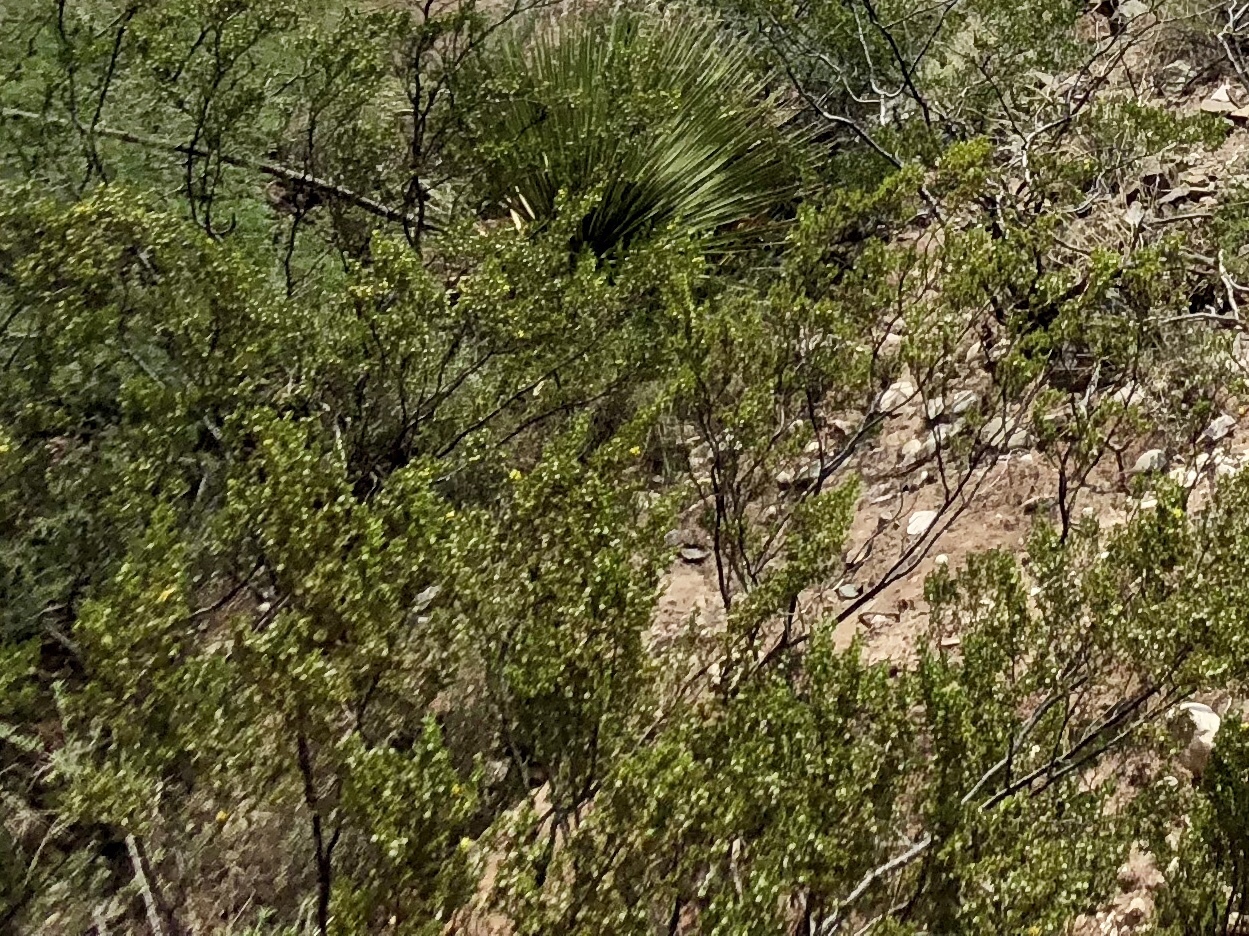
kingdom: Plantae
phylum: Tracheophyta
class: Magnoliopsida
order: Zygophyllales
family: Zygophyllaceae
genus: Larrea
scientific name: Larrea tridentata
